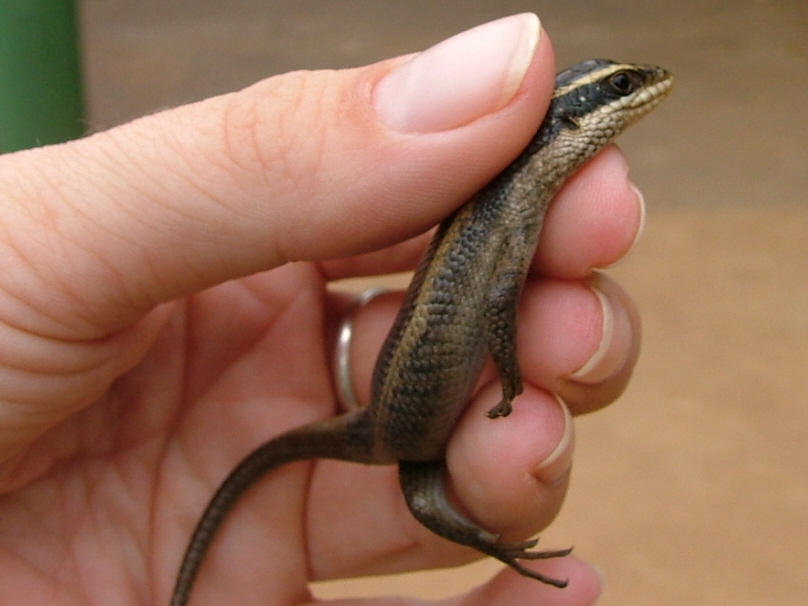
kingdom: Animalia
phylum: Chordata
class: Squamata
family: Scincidae
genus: Trachylepis
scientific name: Trachylepis striata
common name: African striped mabuya
